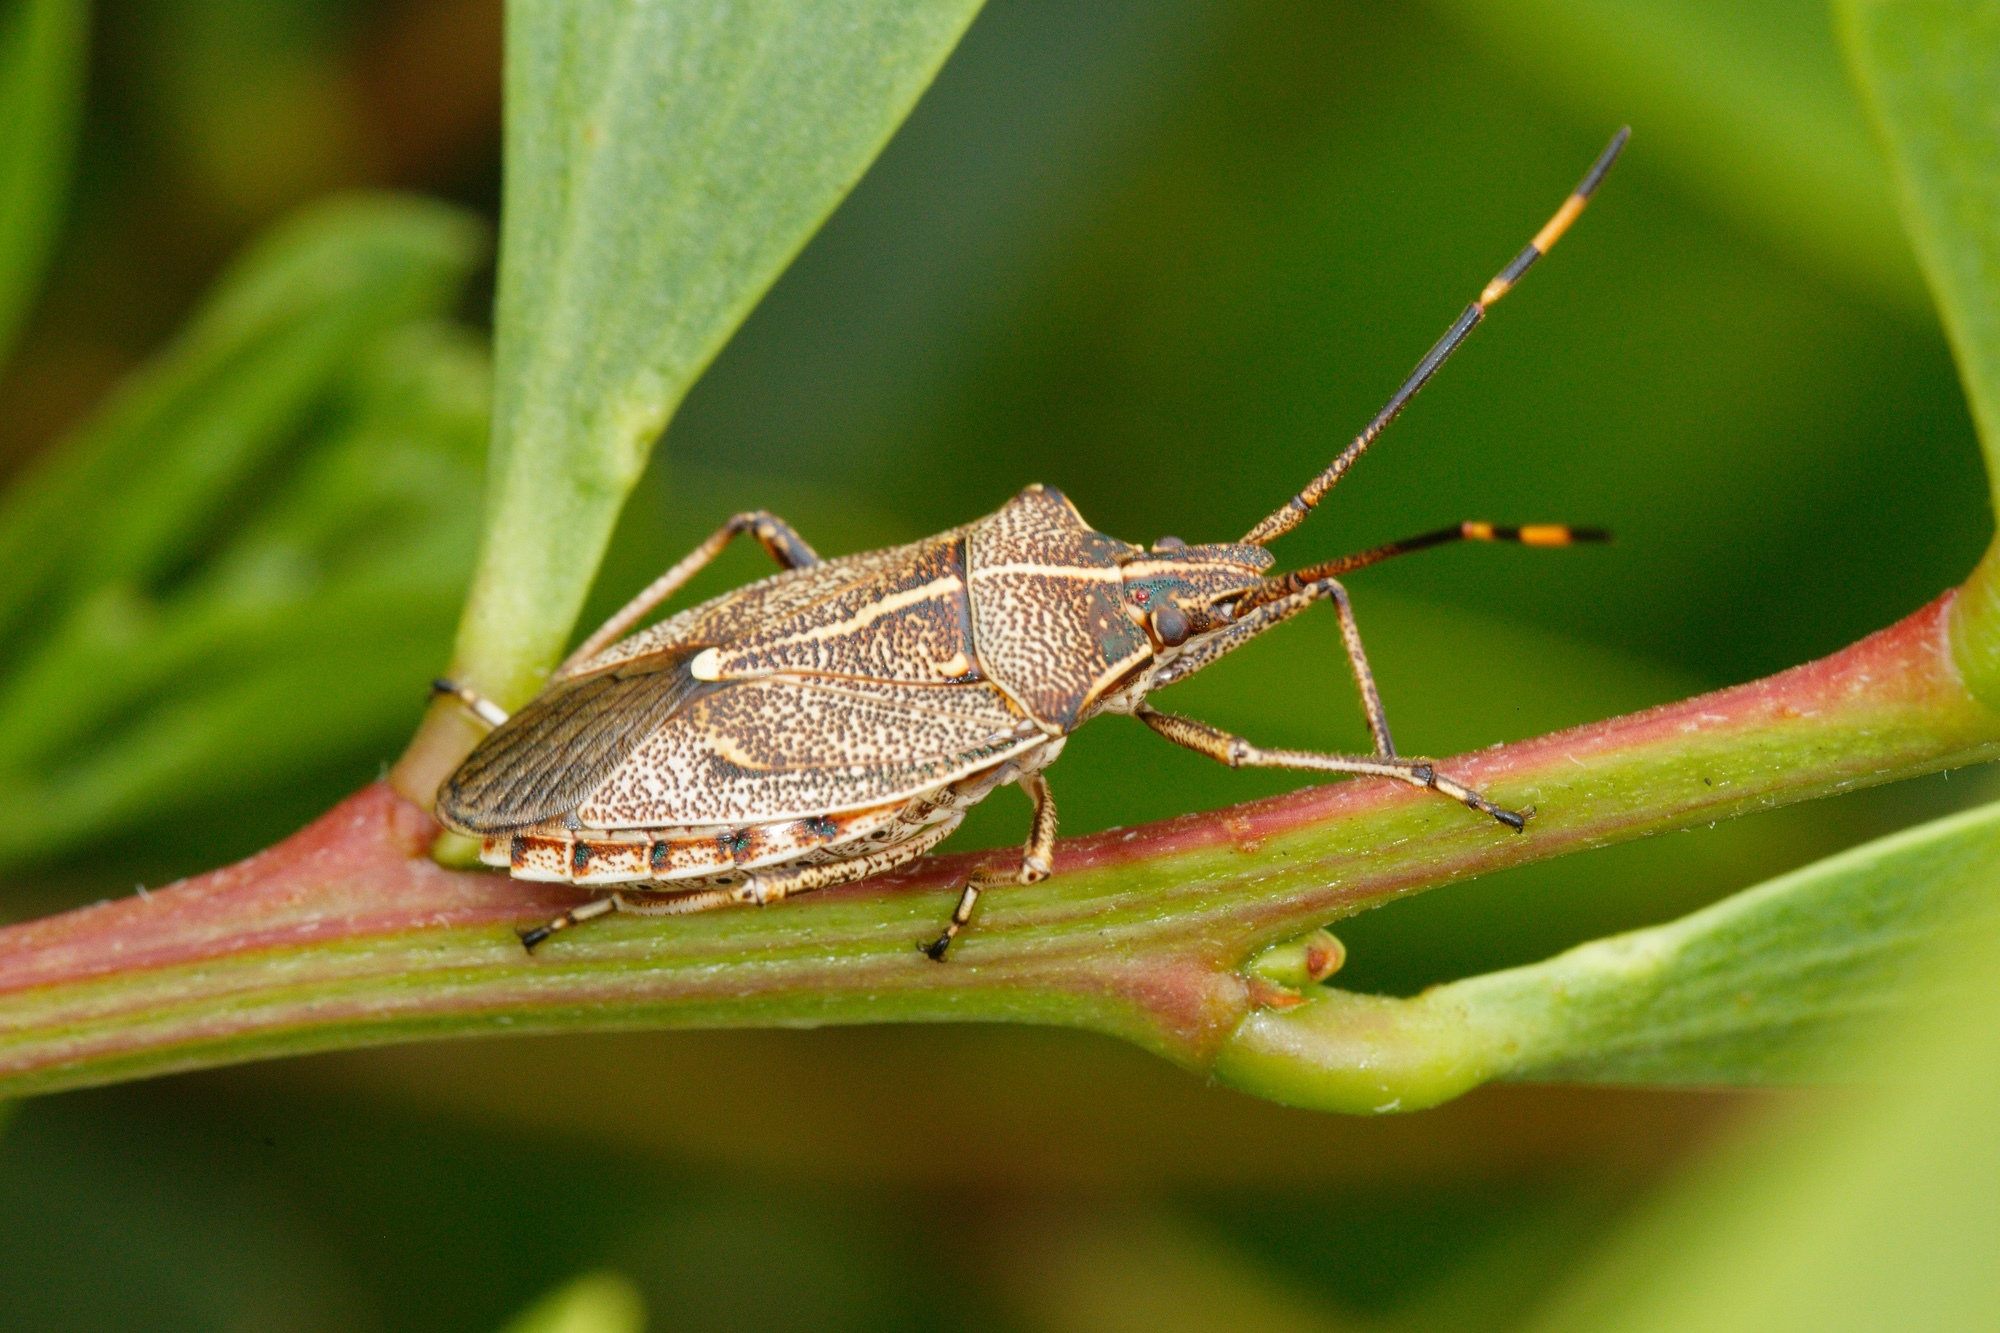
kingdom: Animalia
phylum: Arthropoda
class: Insecta
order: Hemiptera
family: Pentatomidae
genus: Omyta
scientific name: Omyta centrolineata
